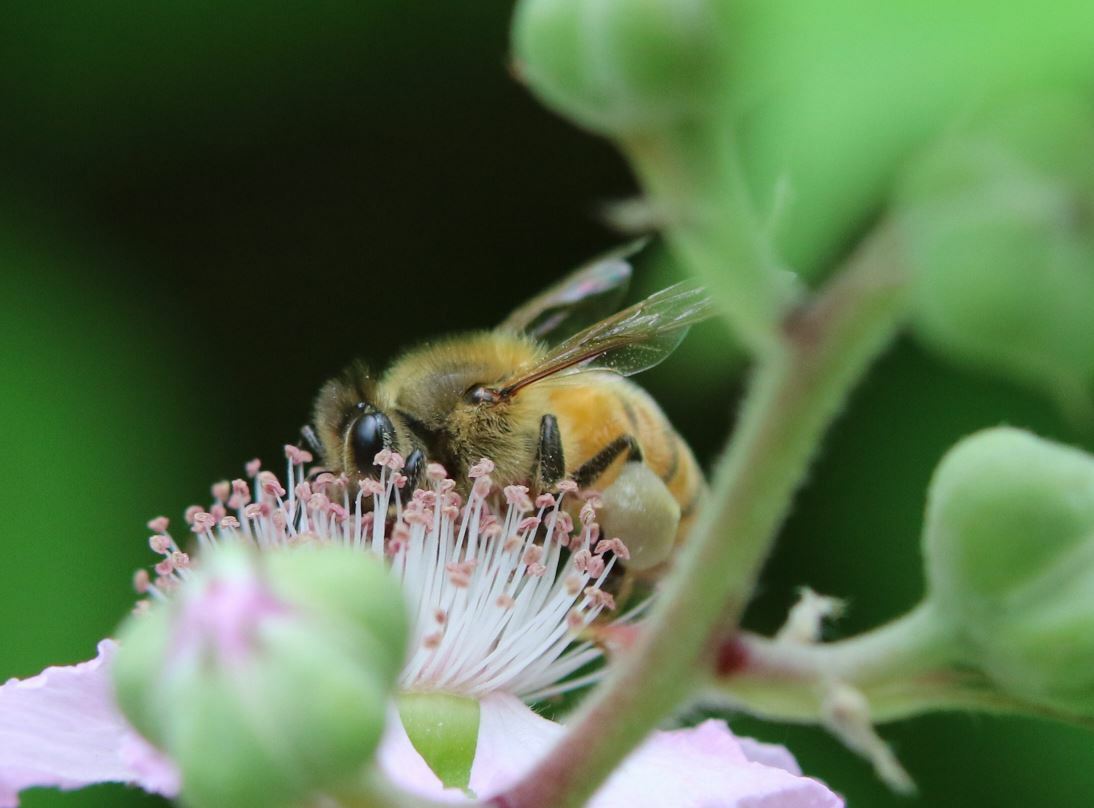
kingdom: Animalia
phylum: Arthropoda
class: Insecta
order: Hymenoptera
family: Apidae
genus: Apis
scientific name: Apis mellifera
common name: Honey bee
